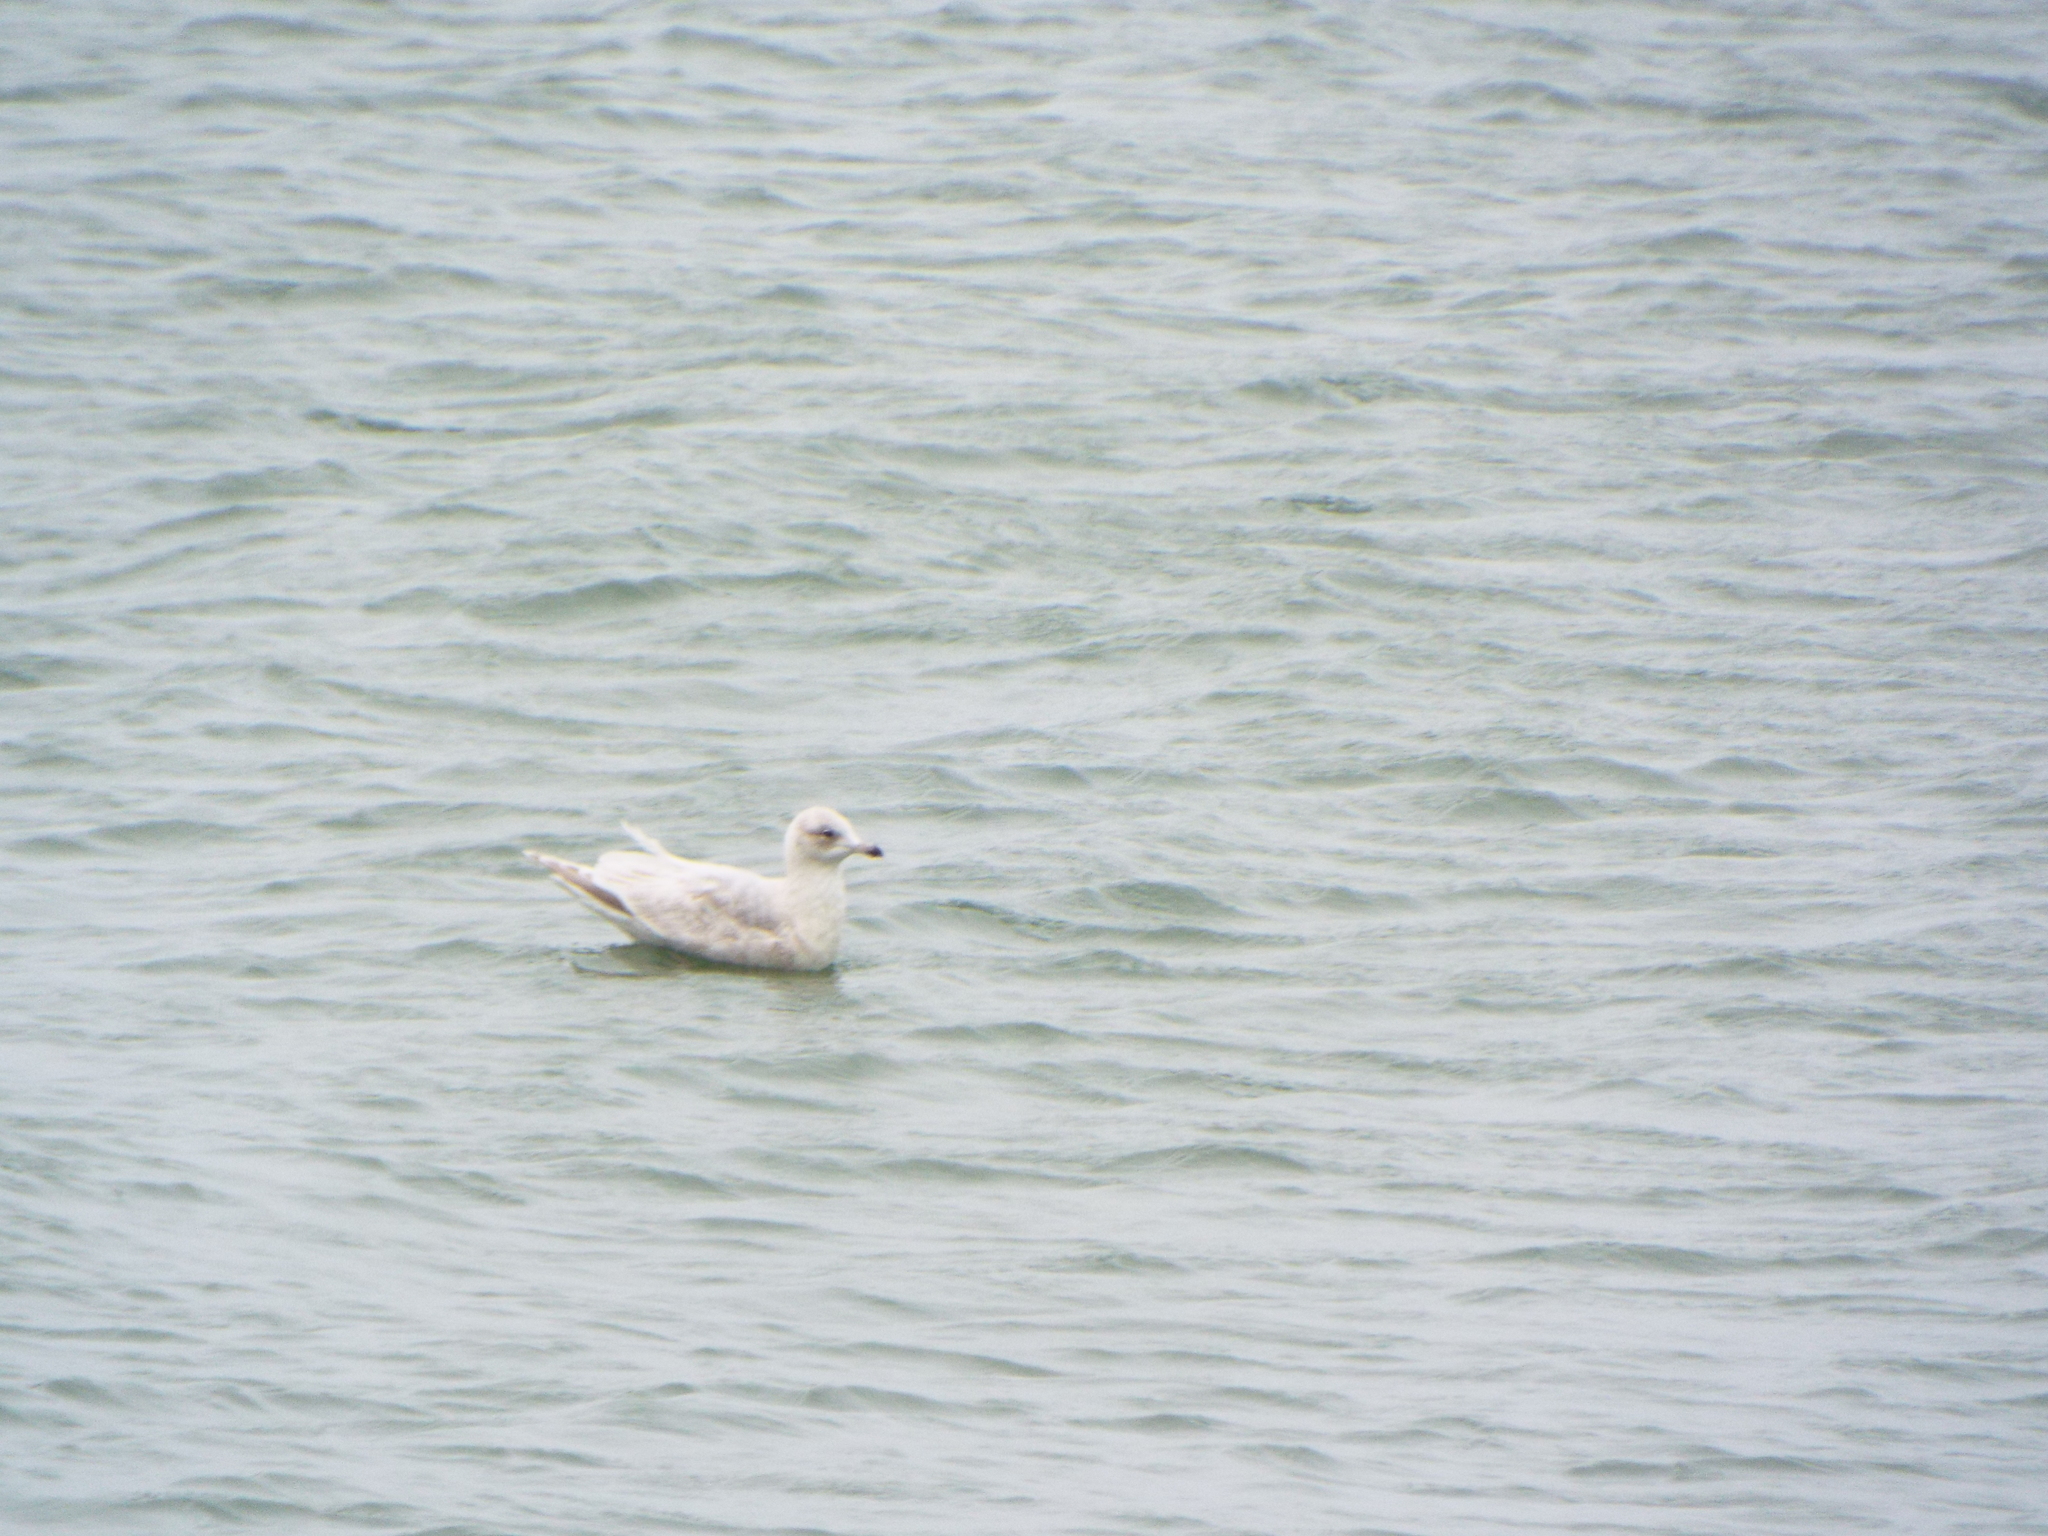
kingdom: Animalia
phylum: Chordata
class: Aves
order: Charadriiformes
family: Laridae
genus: Larus
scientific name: Larus glaucoides
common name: Iceland gull
